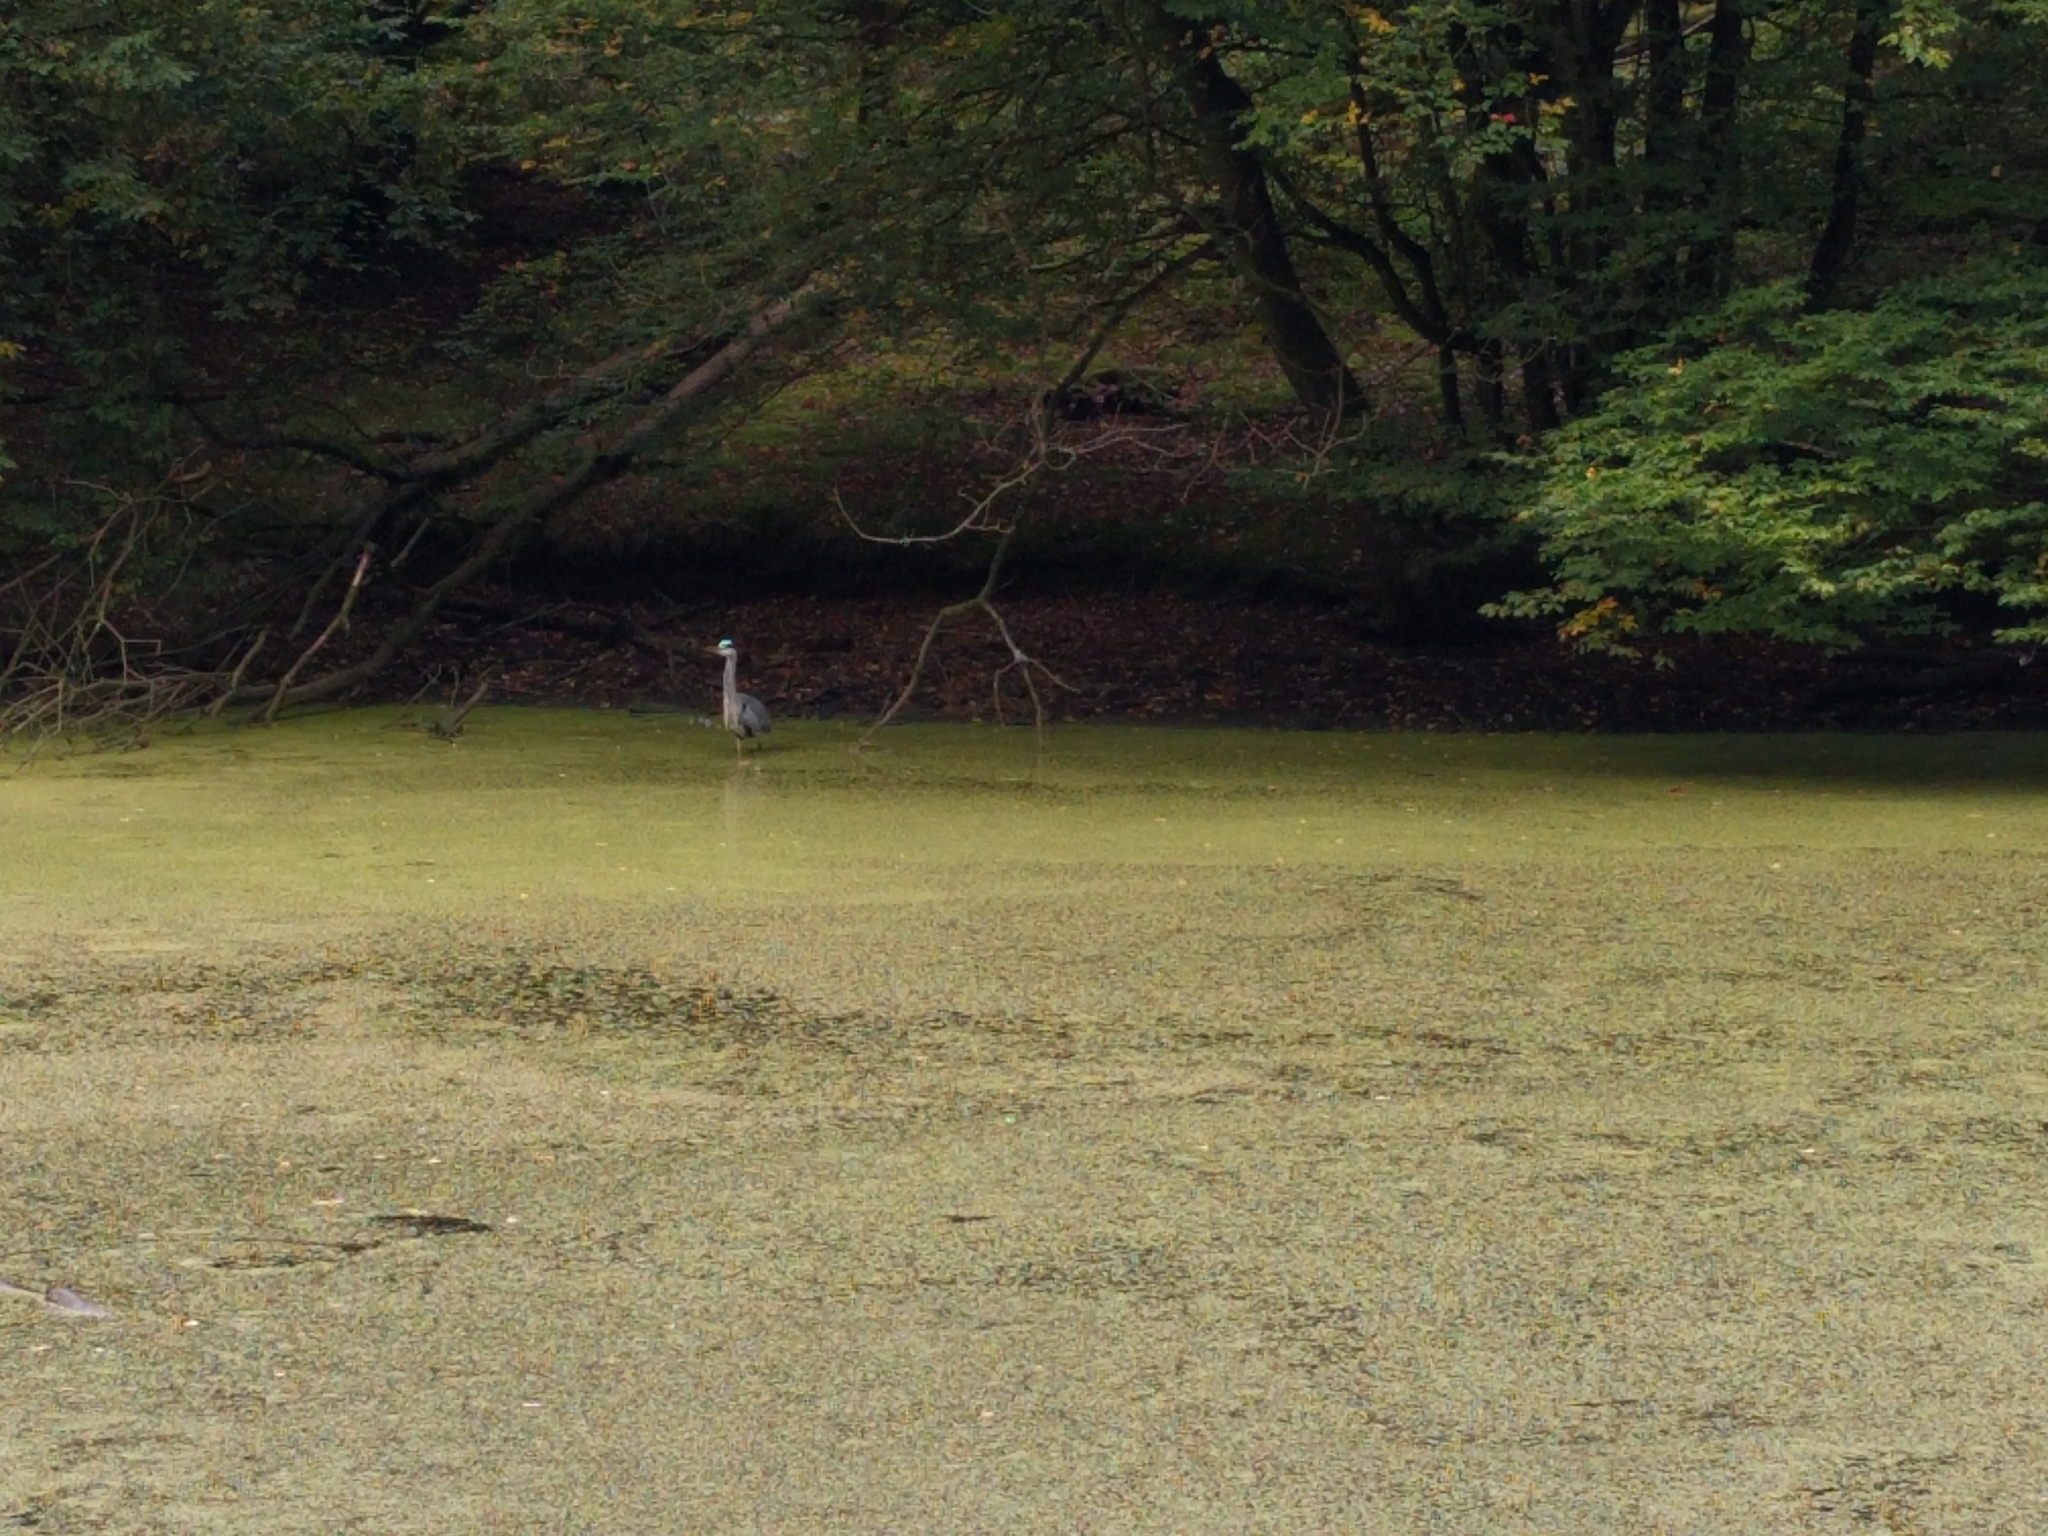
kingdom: Animalia
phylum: Chordata
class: Aves
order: Pelecaniformes
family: Ardeidae
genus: Ardea
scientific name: Ardea cinerea
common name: Grey heron
